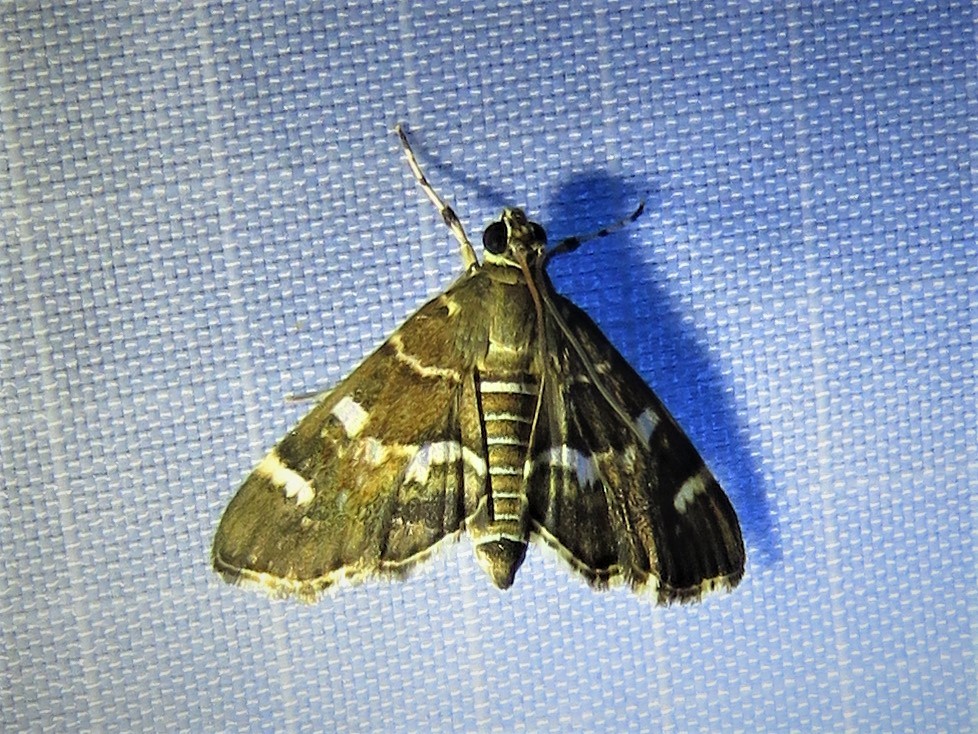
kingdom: Animalia
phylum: Arthropoda
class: Insecta
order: Lepidoptera
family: Crambidae
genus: Hymenia
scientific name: Hymenia perspectalis
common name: Spotted beet webworm
